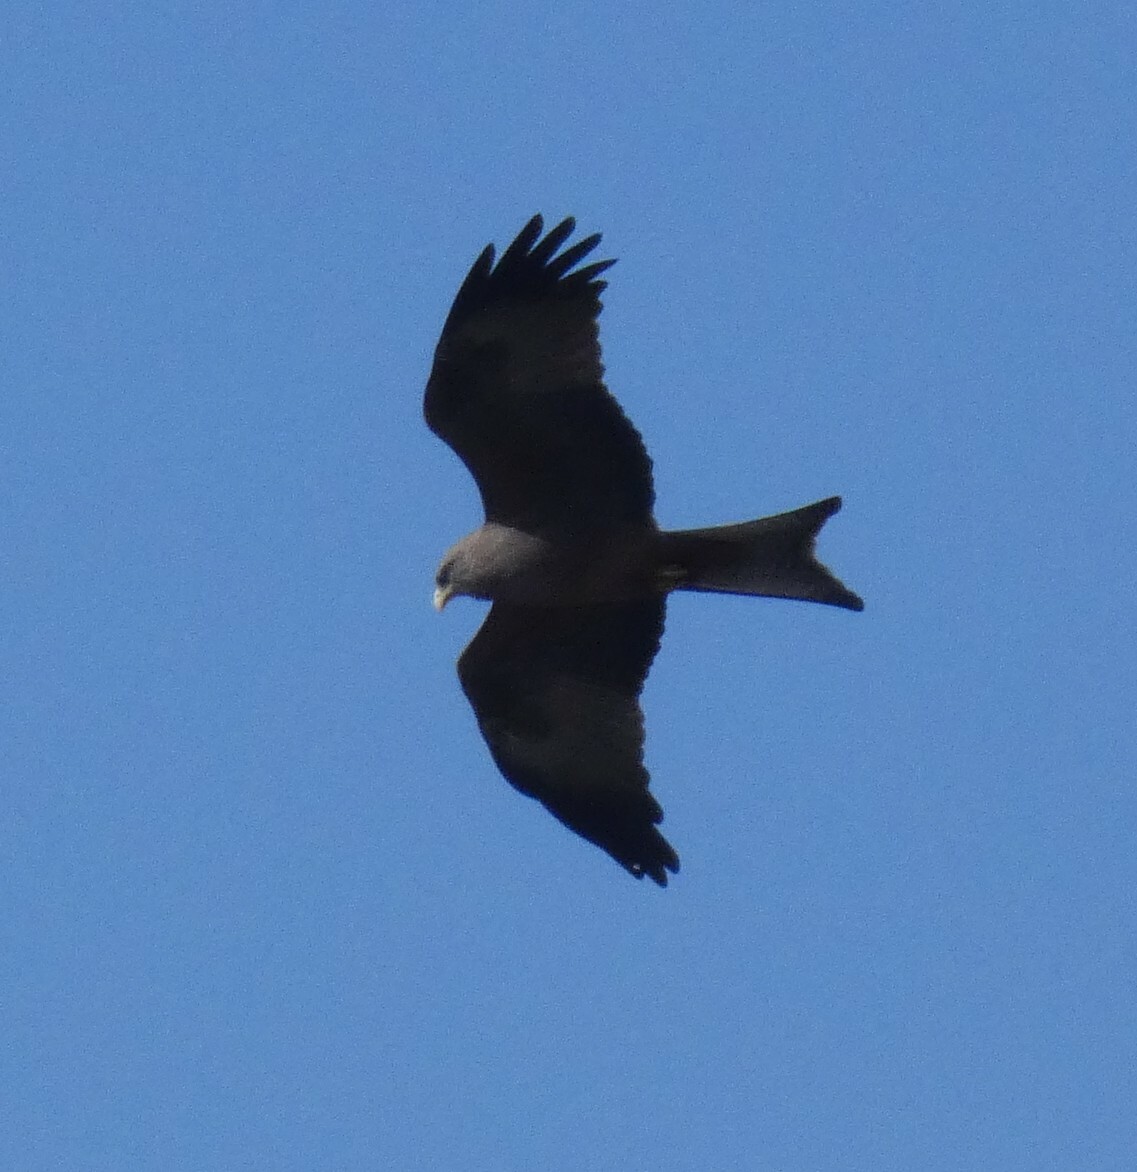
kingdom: Animalia
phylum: Chordata
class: Aves
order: Accipitriformes
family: Accipitridae
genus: Milvus
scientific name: Milvus migrans
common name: Black kite
